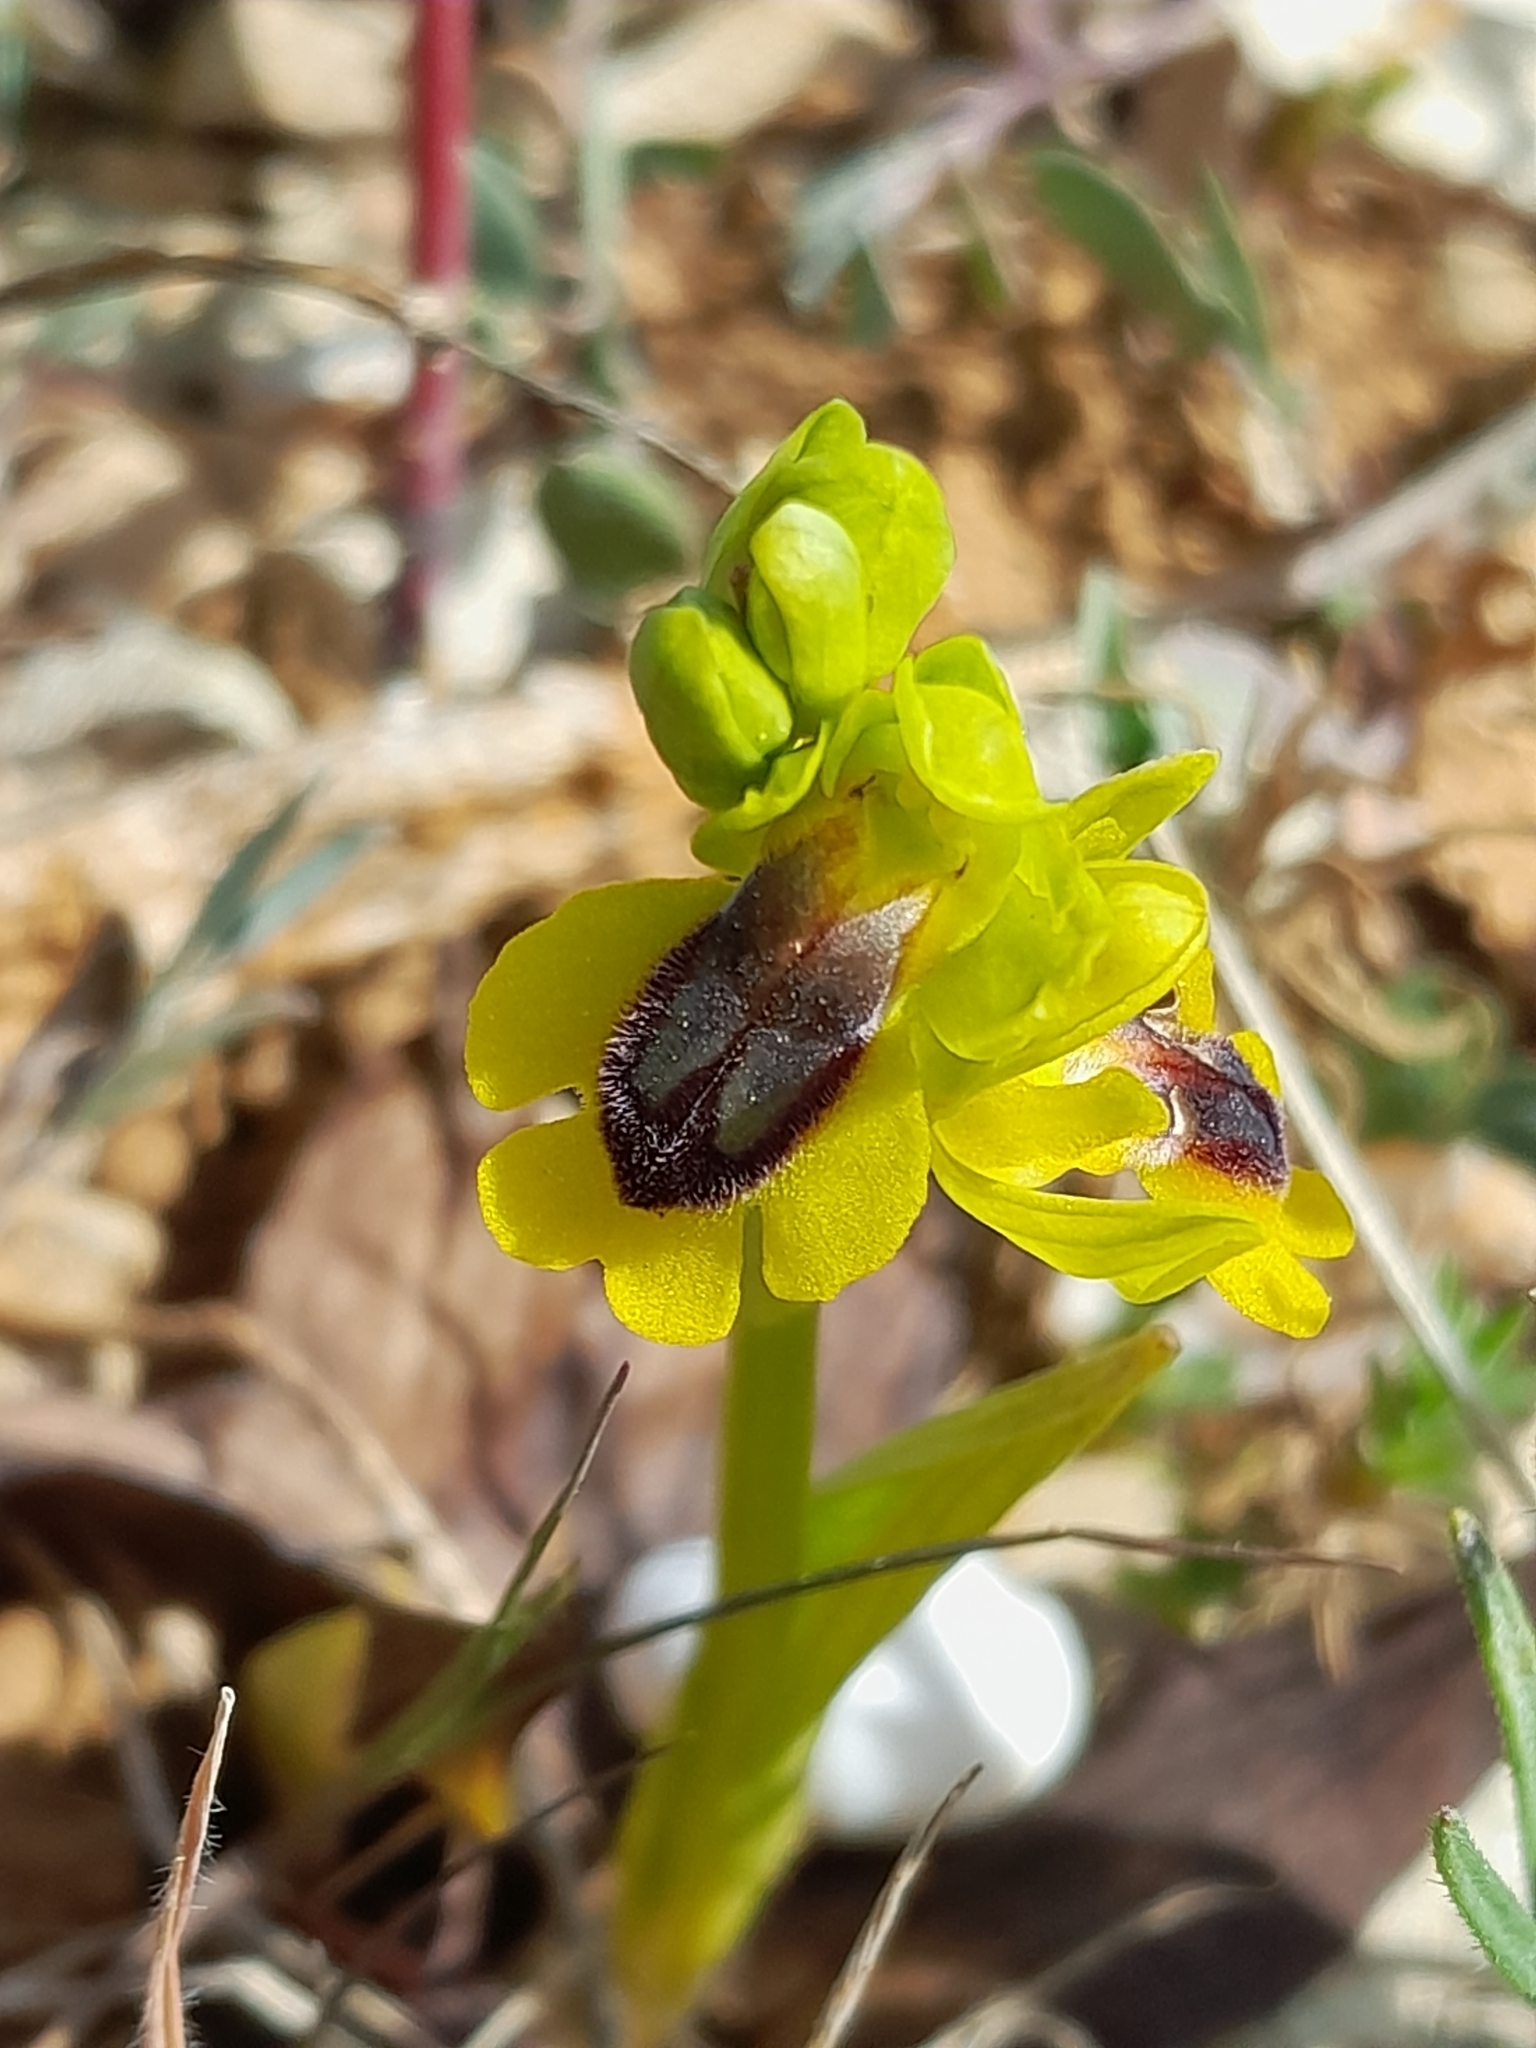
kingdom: Plantae
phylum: Tracheophyta
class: Liliopsida
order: Asparagales
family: Orchidaceae
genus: Ophrys
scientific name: Ophrys lutea
